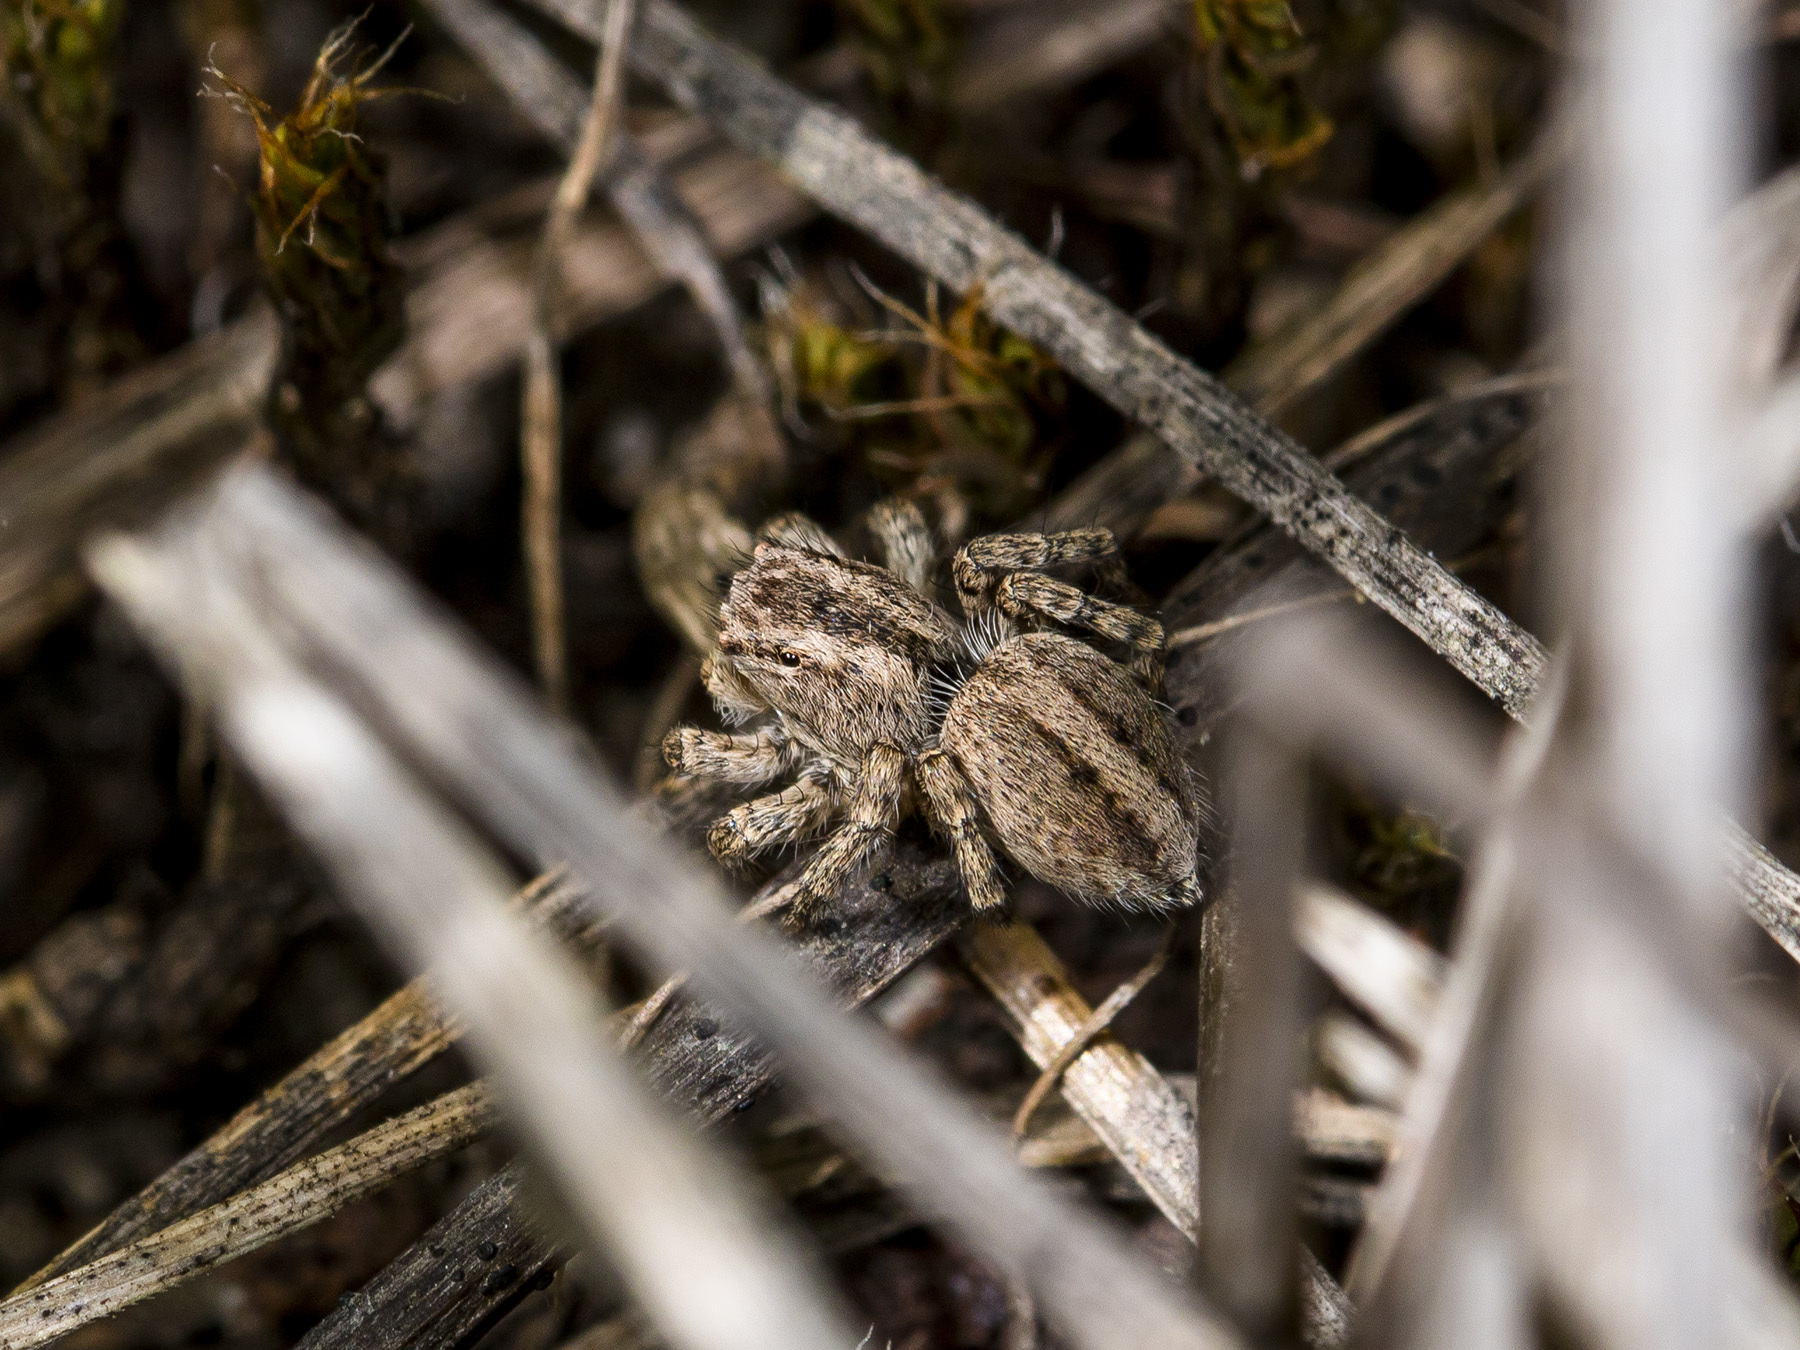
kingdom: Animalia
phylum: Arthropoda
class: Arachnida
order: Araneae
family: Salticidae
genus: Aelurillus
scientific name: Aelurillus v-insignitus
